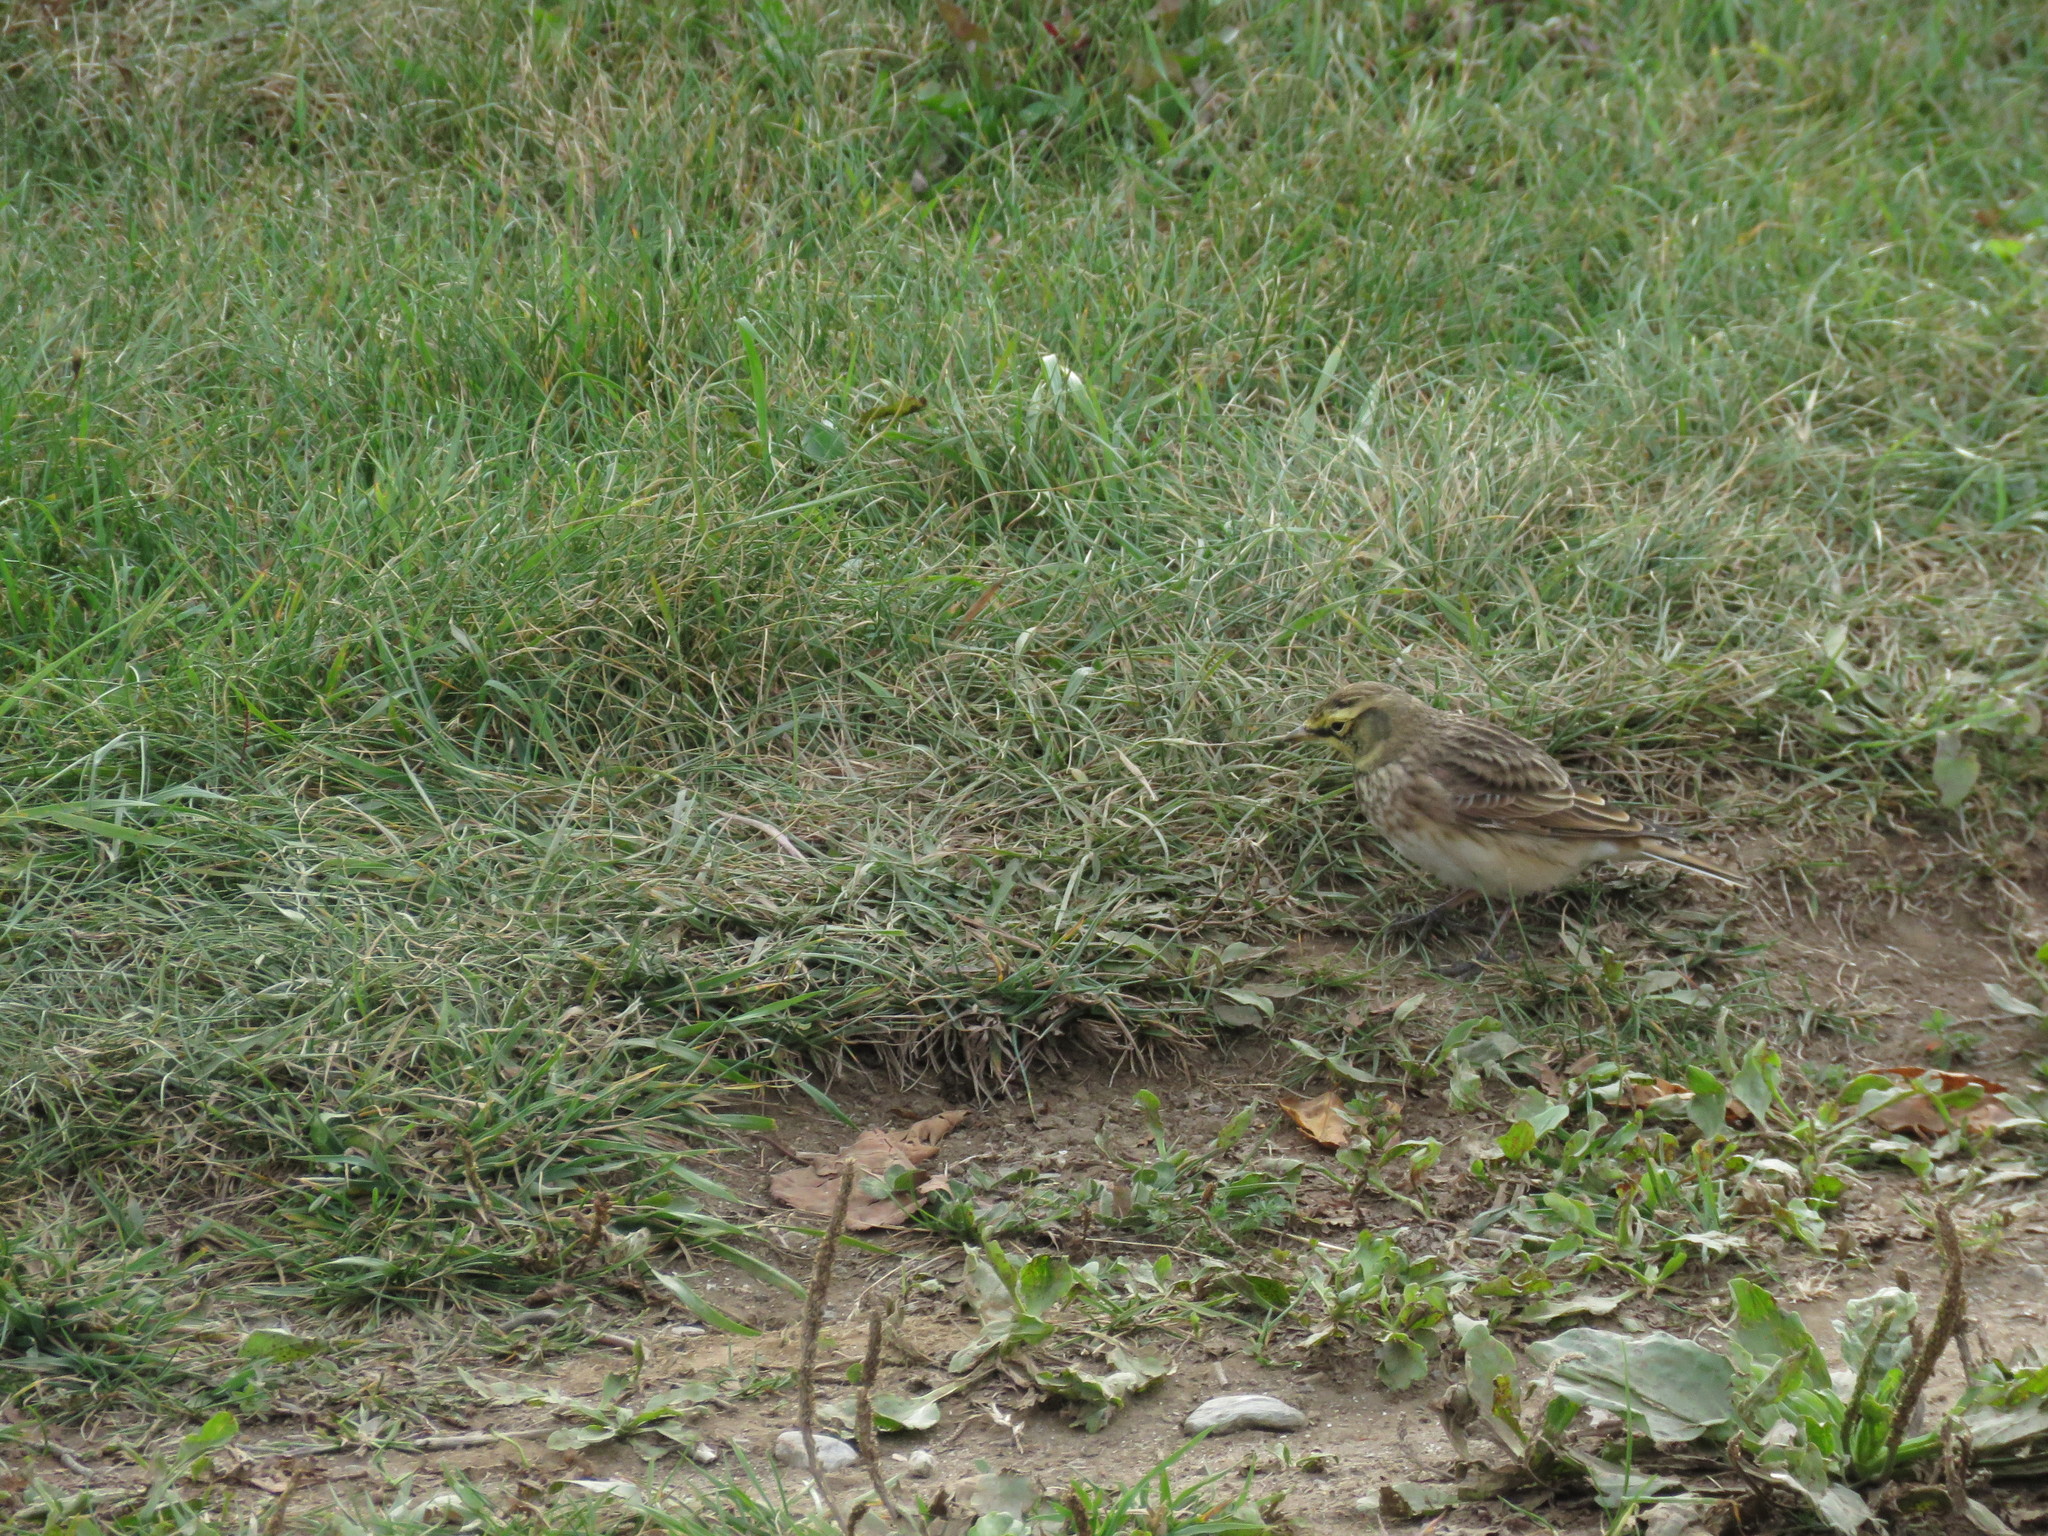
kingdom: Animalia
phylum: Chordata
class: Aves
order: Passeriformes
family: Alaudidae
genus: Eremophila
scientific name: Eremophila alpestris
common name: Horned lark
